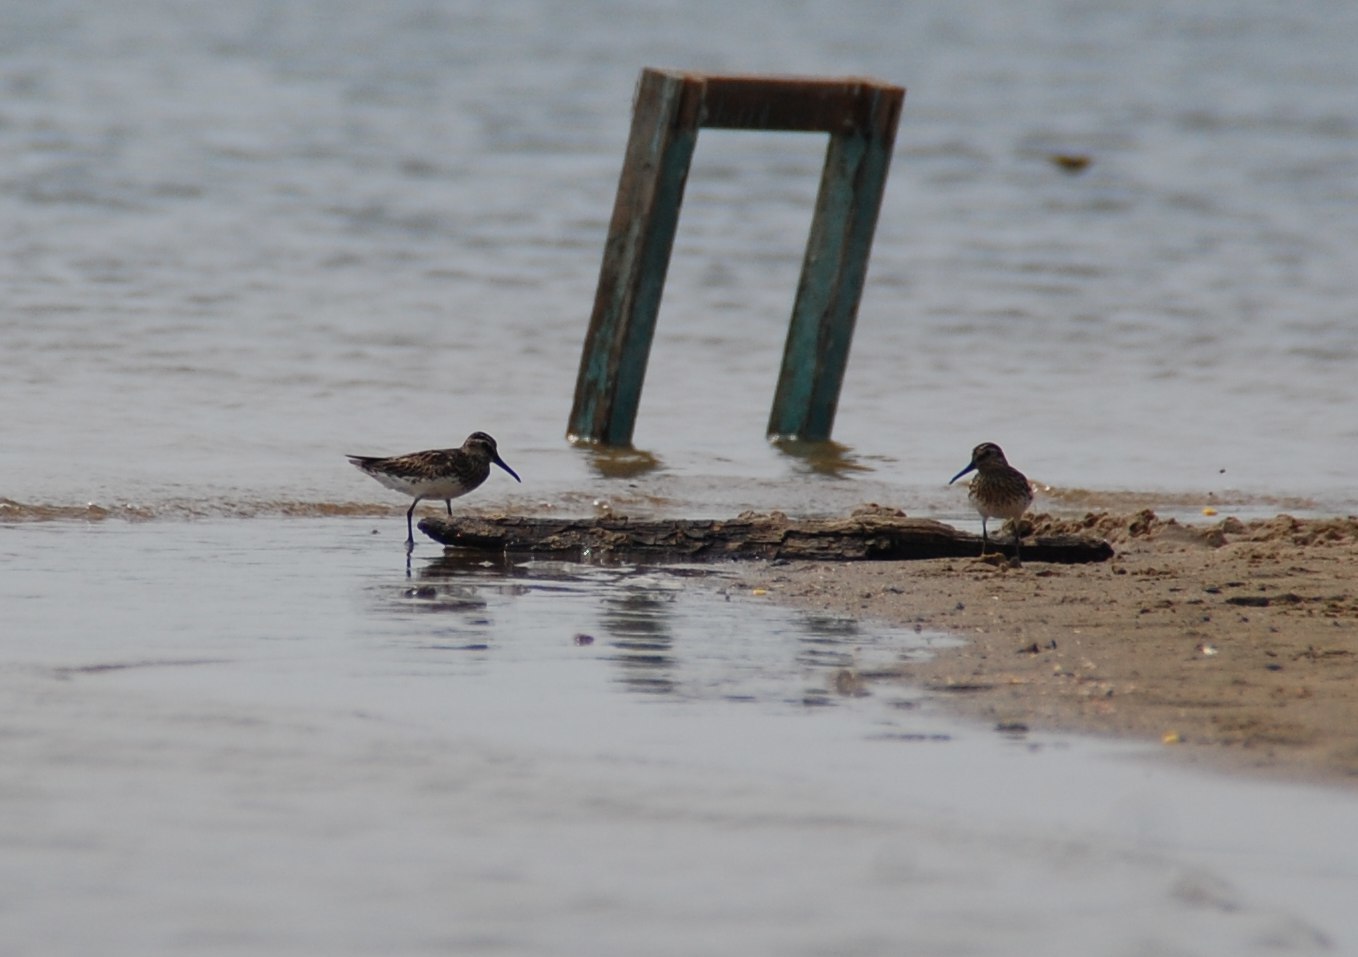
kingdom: Animalia
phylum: Chordata
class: Aves
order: Charadriiformes
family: Scolopacidae
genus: Calidris
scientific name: Calidris falcinellus
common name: Broad-billed sandpiper
